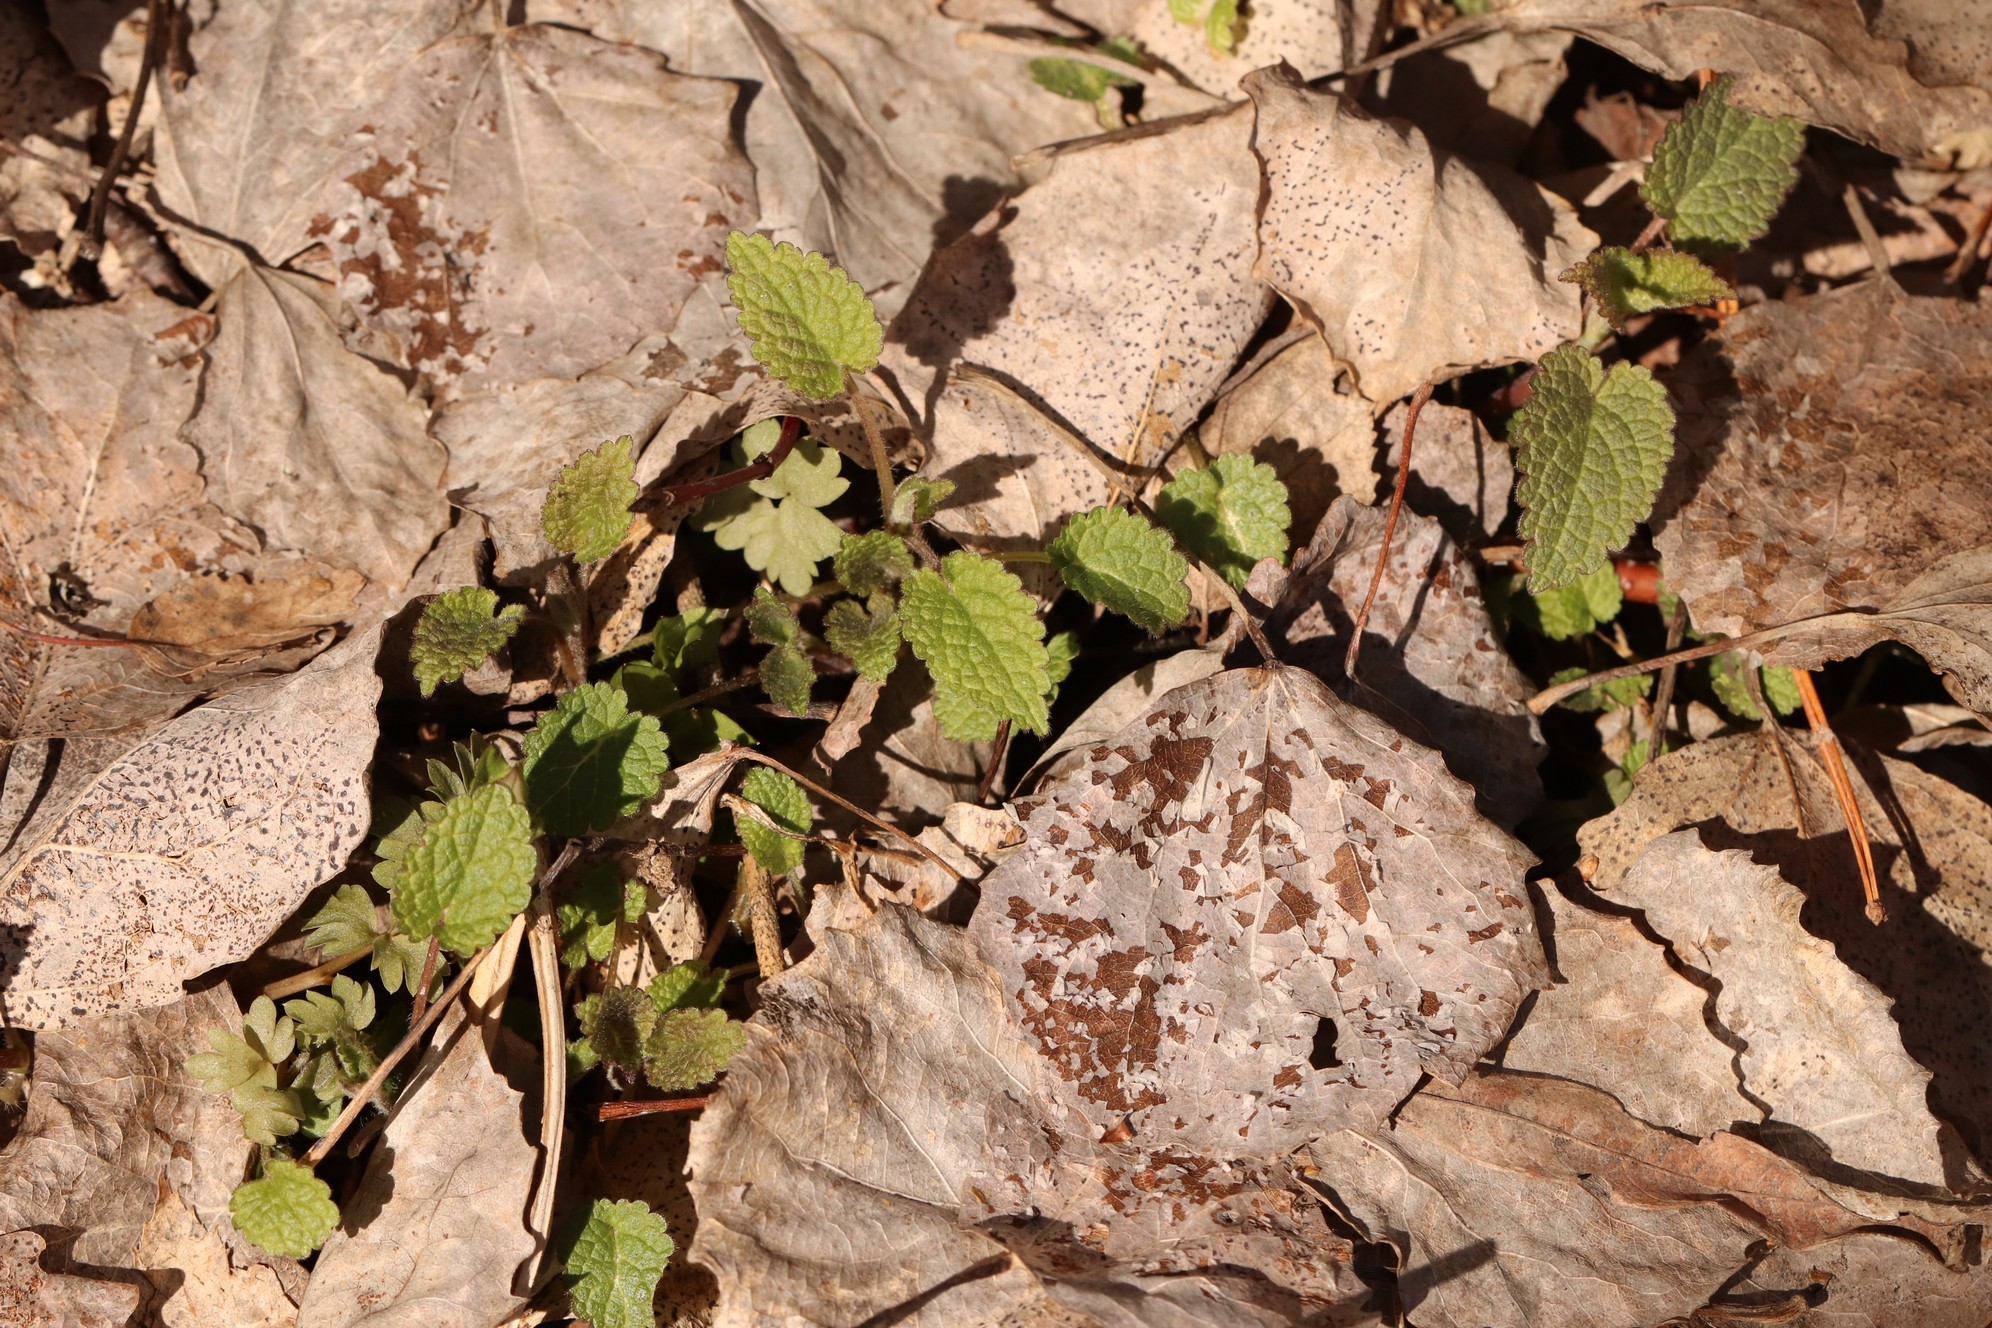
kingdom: Plantae
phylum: Tracheophyta
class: Magnoliopsida
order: Lamiales
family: Lamiaceae
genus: Lamium
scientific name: Lamium album
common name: White dead-nettle
